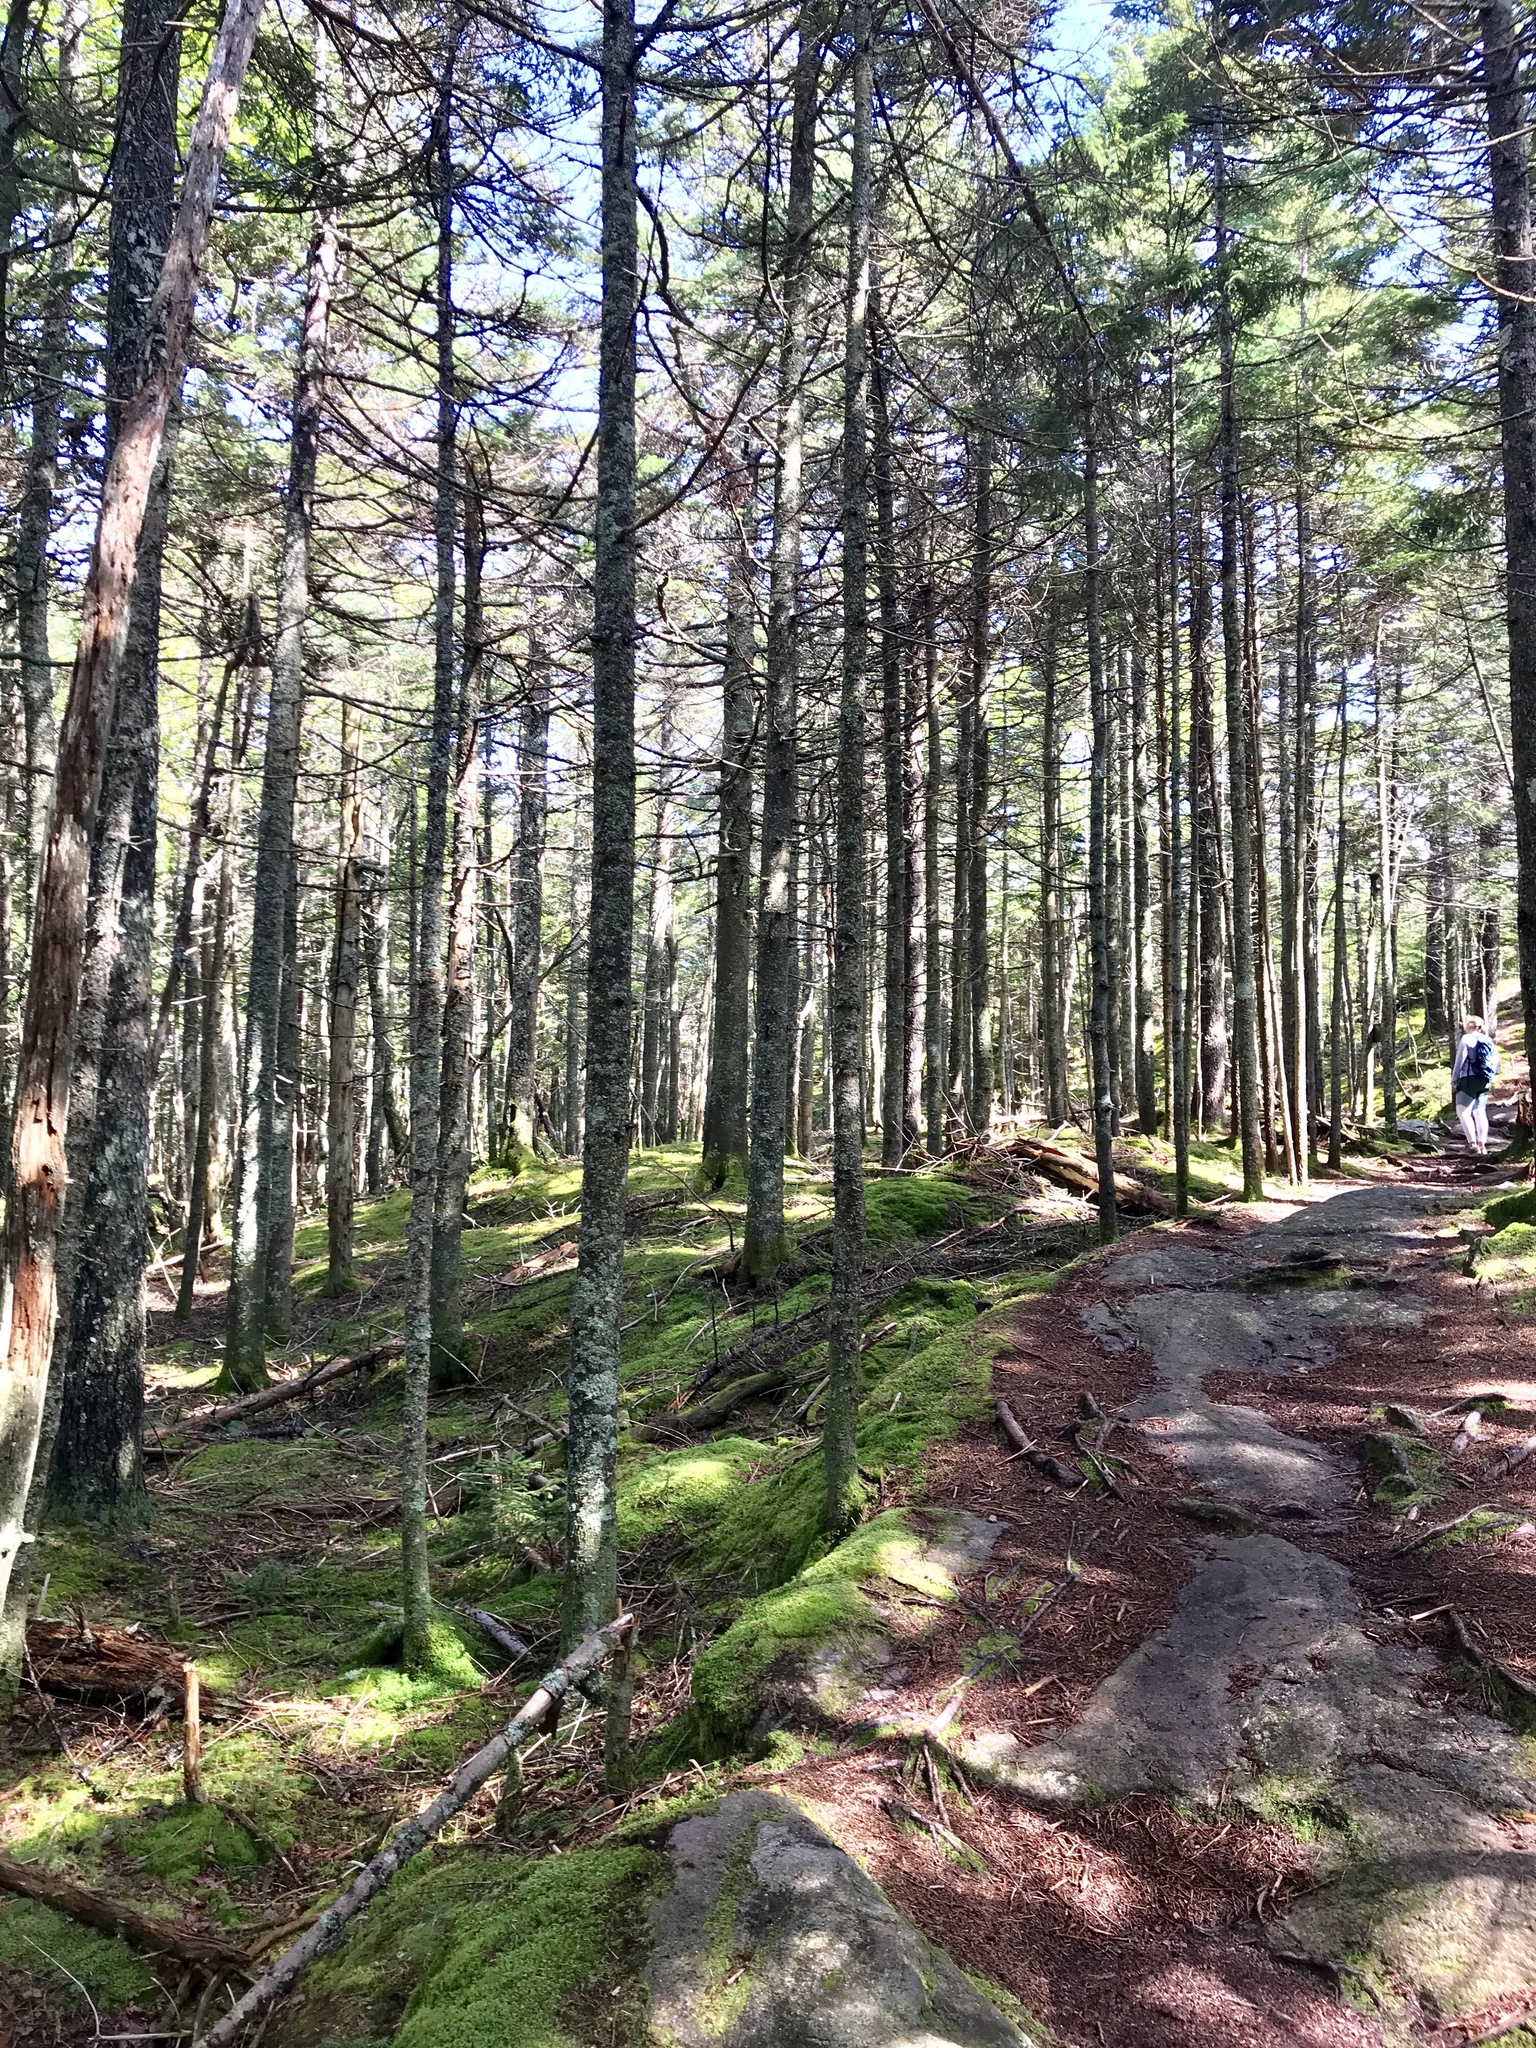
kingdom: Plantae
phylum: Tracheophyta
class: Pinopsida
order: Pinales
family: Pinaceae
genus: Abies
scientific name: Abies balsamea
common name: Balsam fir
